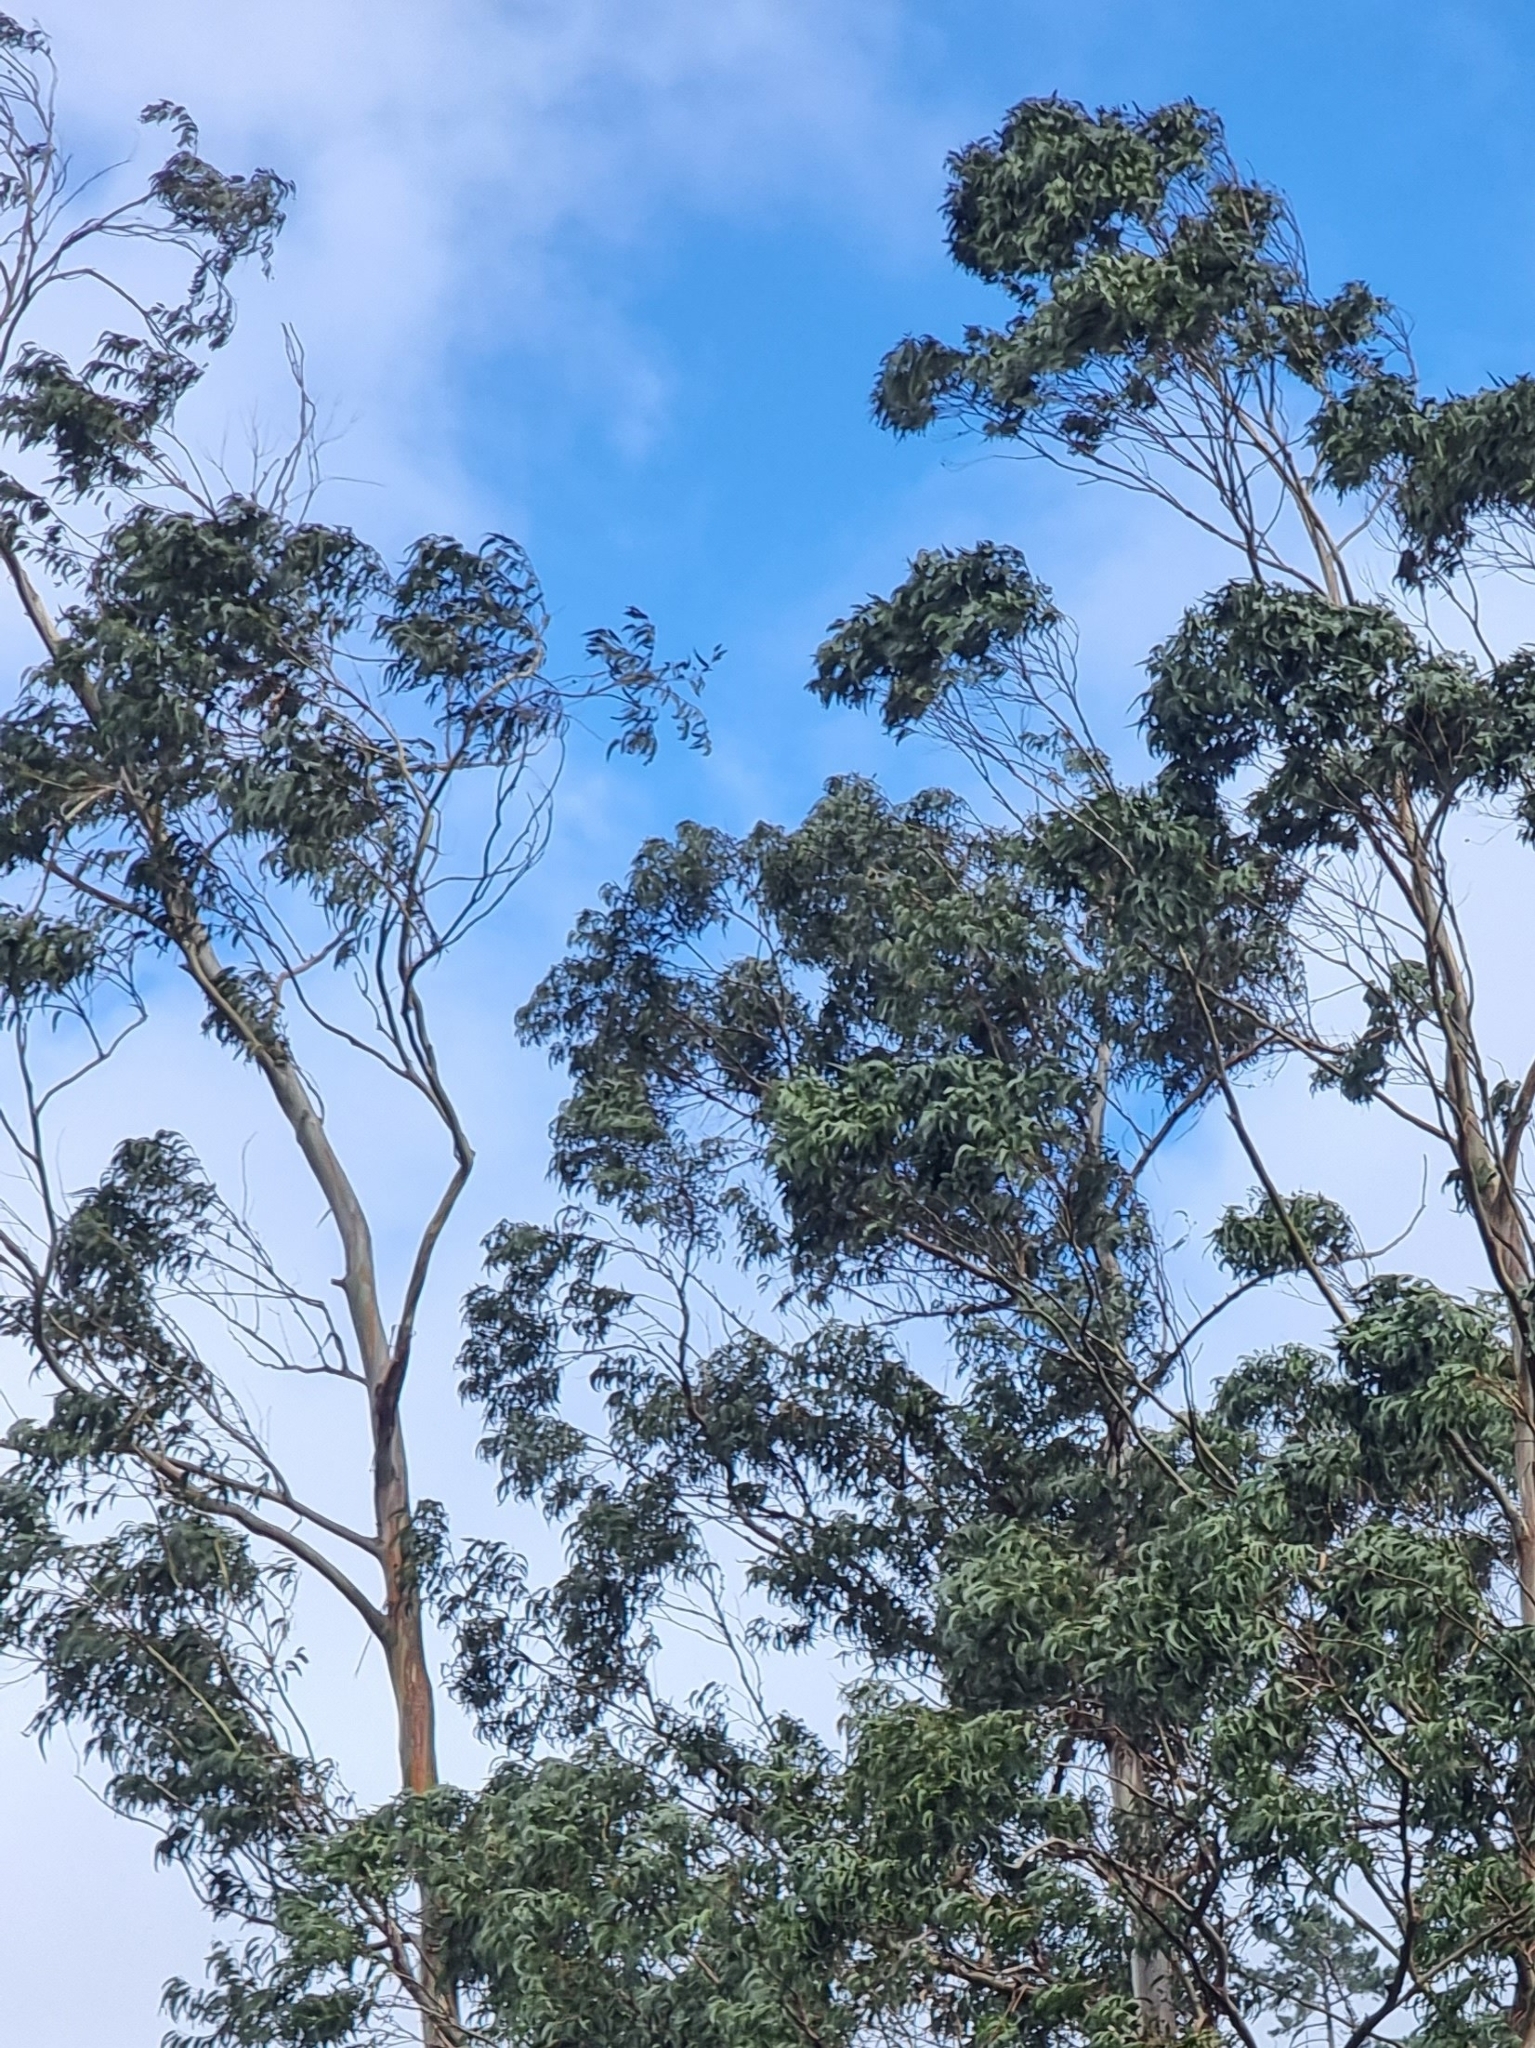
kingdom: Plantae
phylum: Tracheophyta
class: Magnoliopsida
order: Myrtales
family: Myrtaceae
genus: Eucalyptus
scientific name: Eucalyptus globulus
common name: Southern blue-gum
